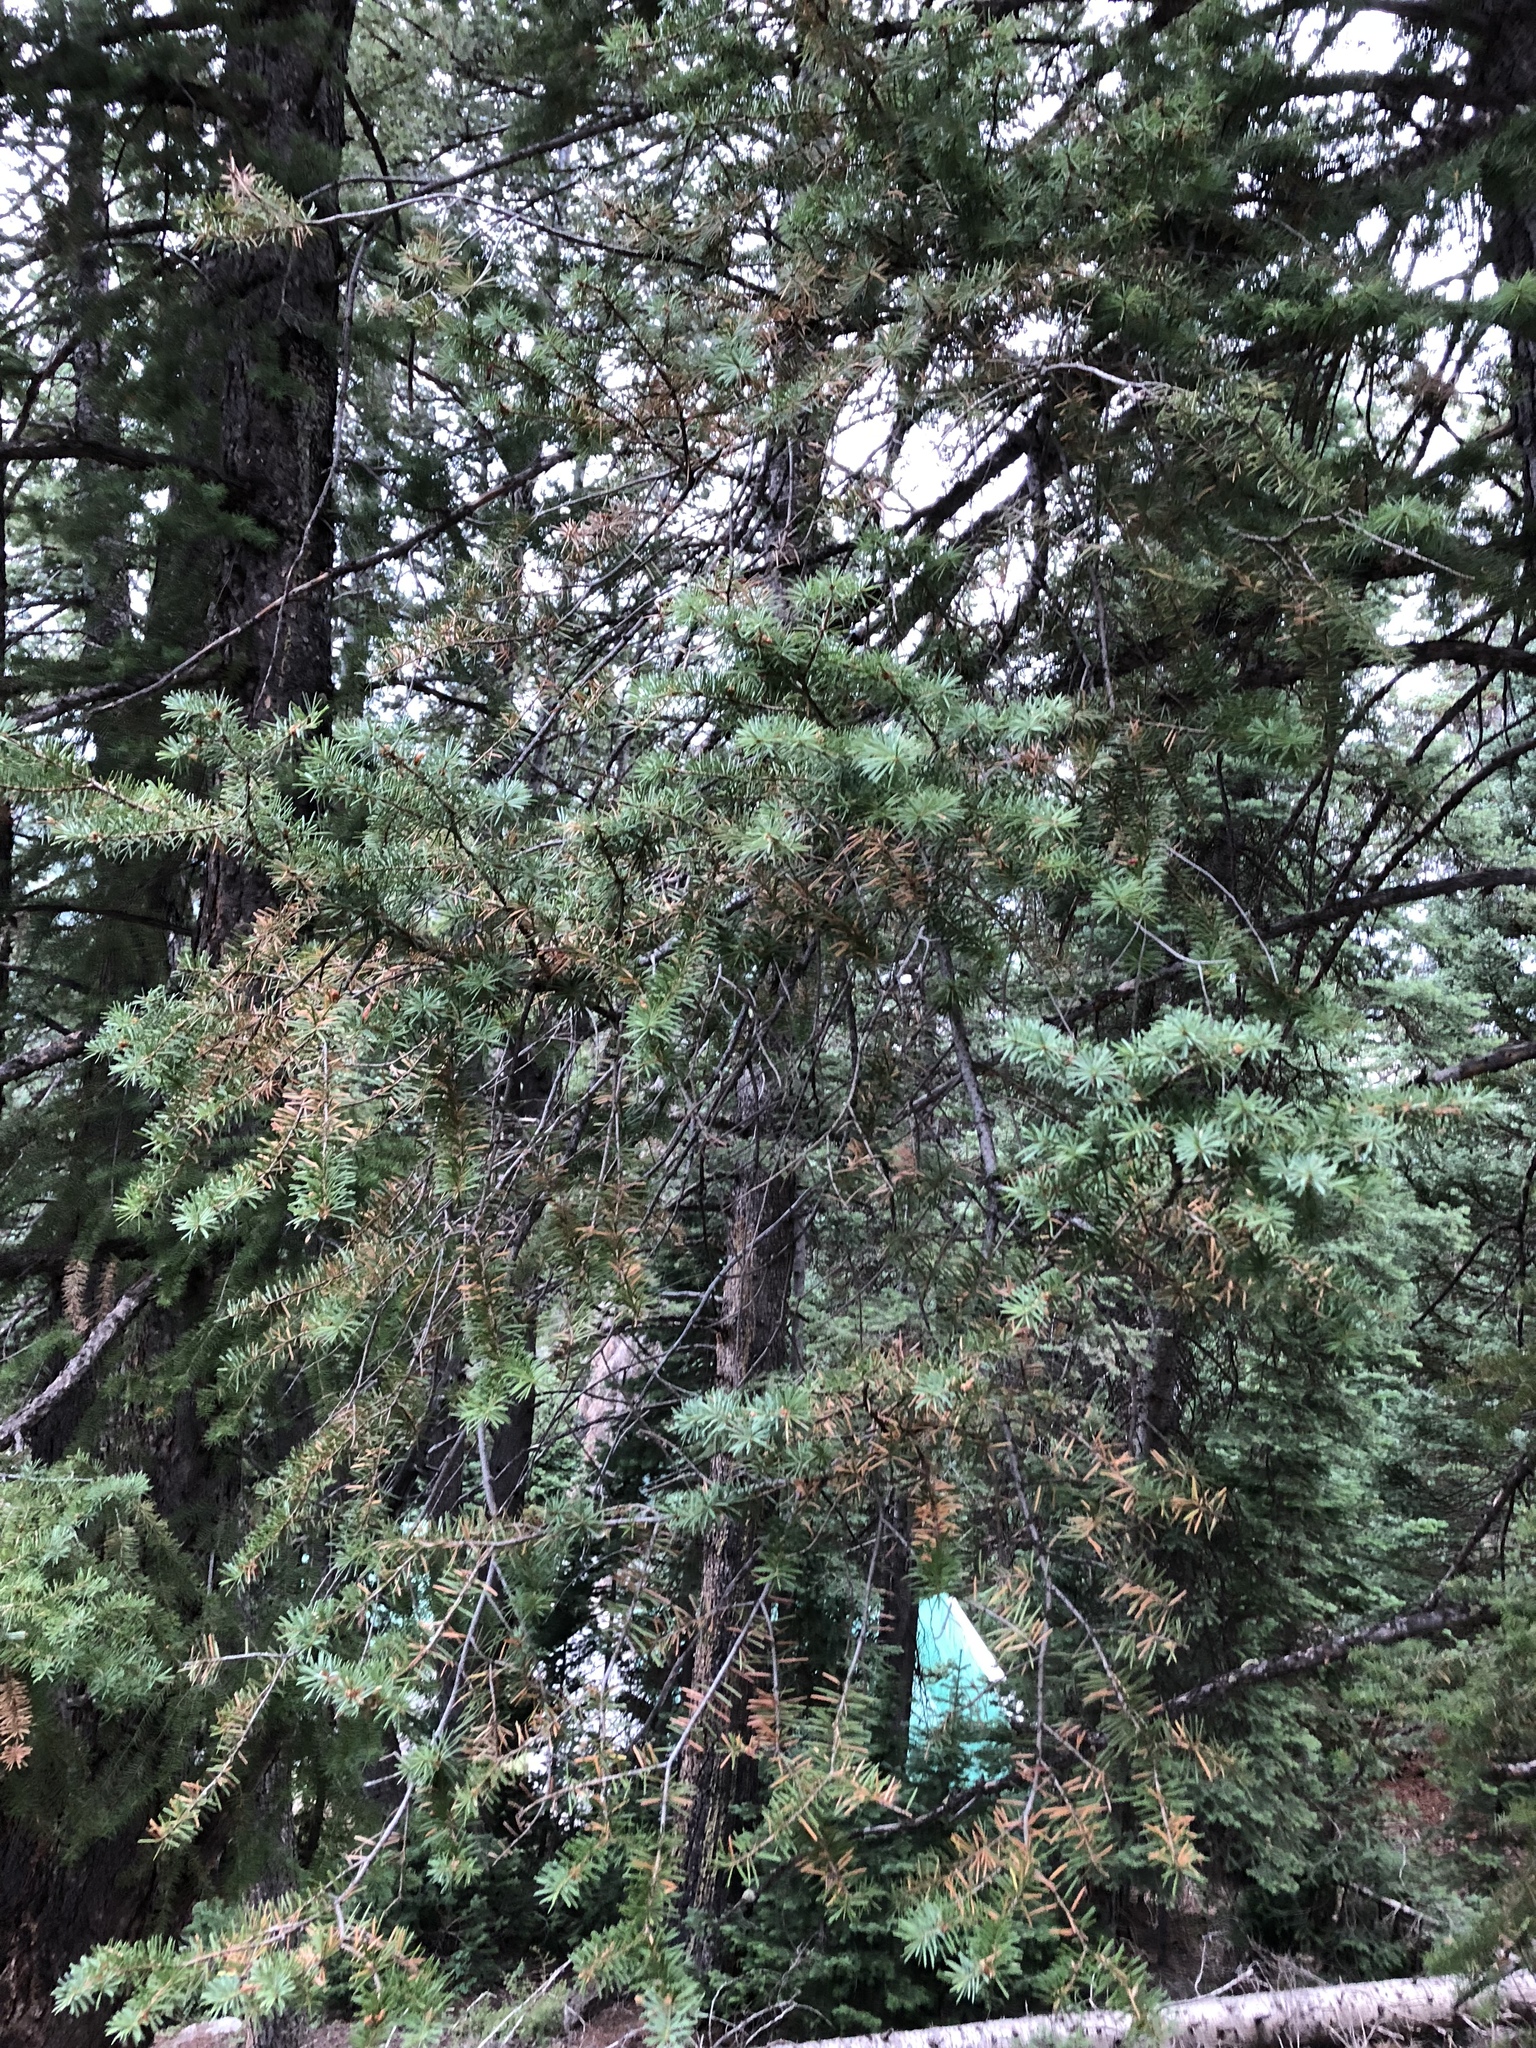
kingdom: Plantae
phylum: Tracheophyta
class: Pinopsida
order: Pinales
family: Pinaceae
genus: Pseudotsuga
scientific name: Pseudotsuga menziesii
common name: Douglas fir
